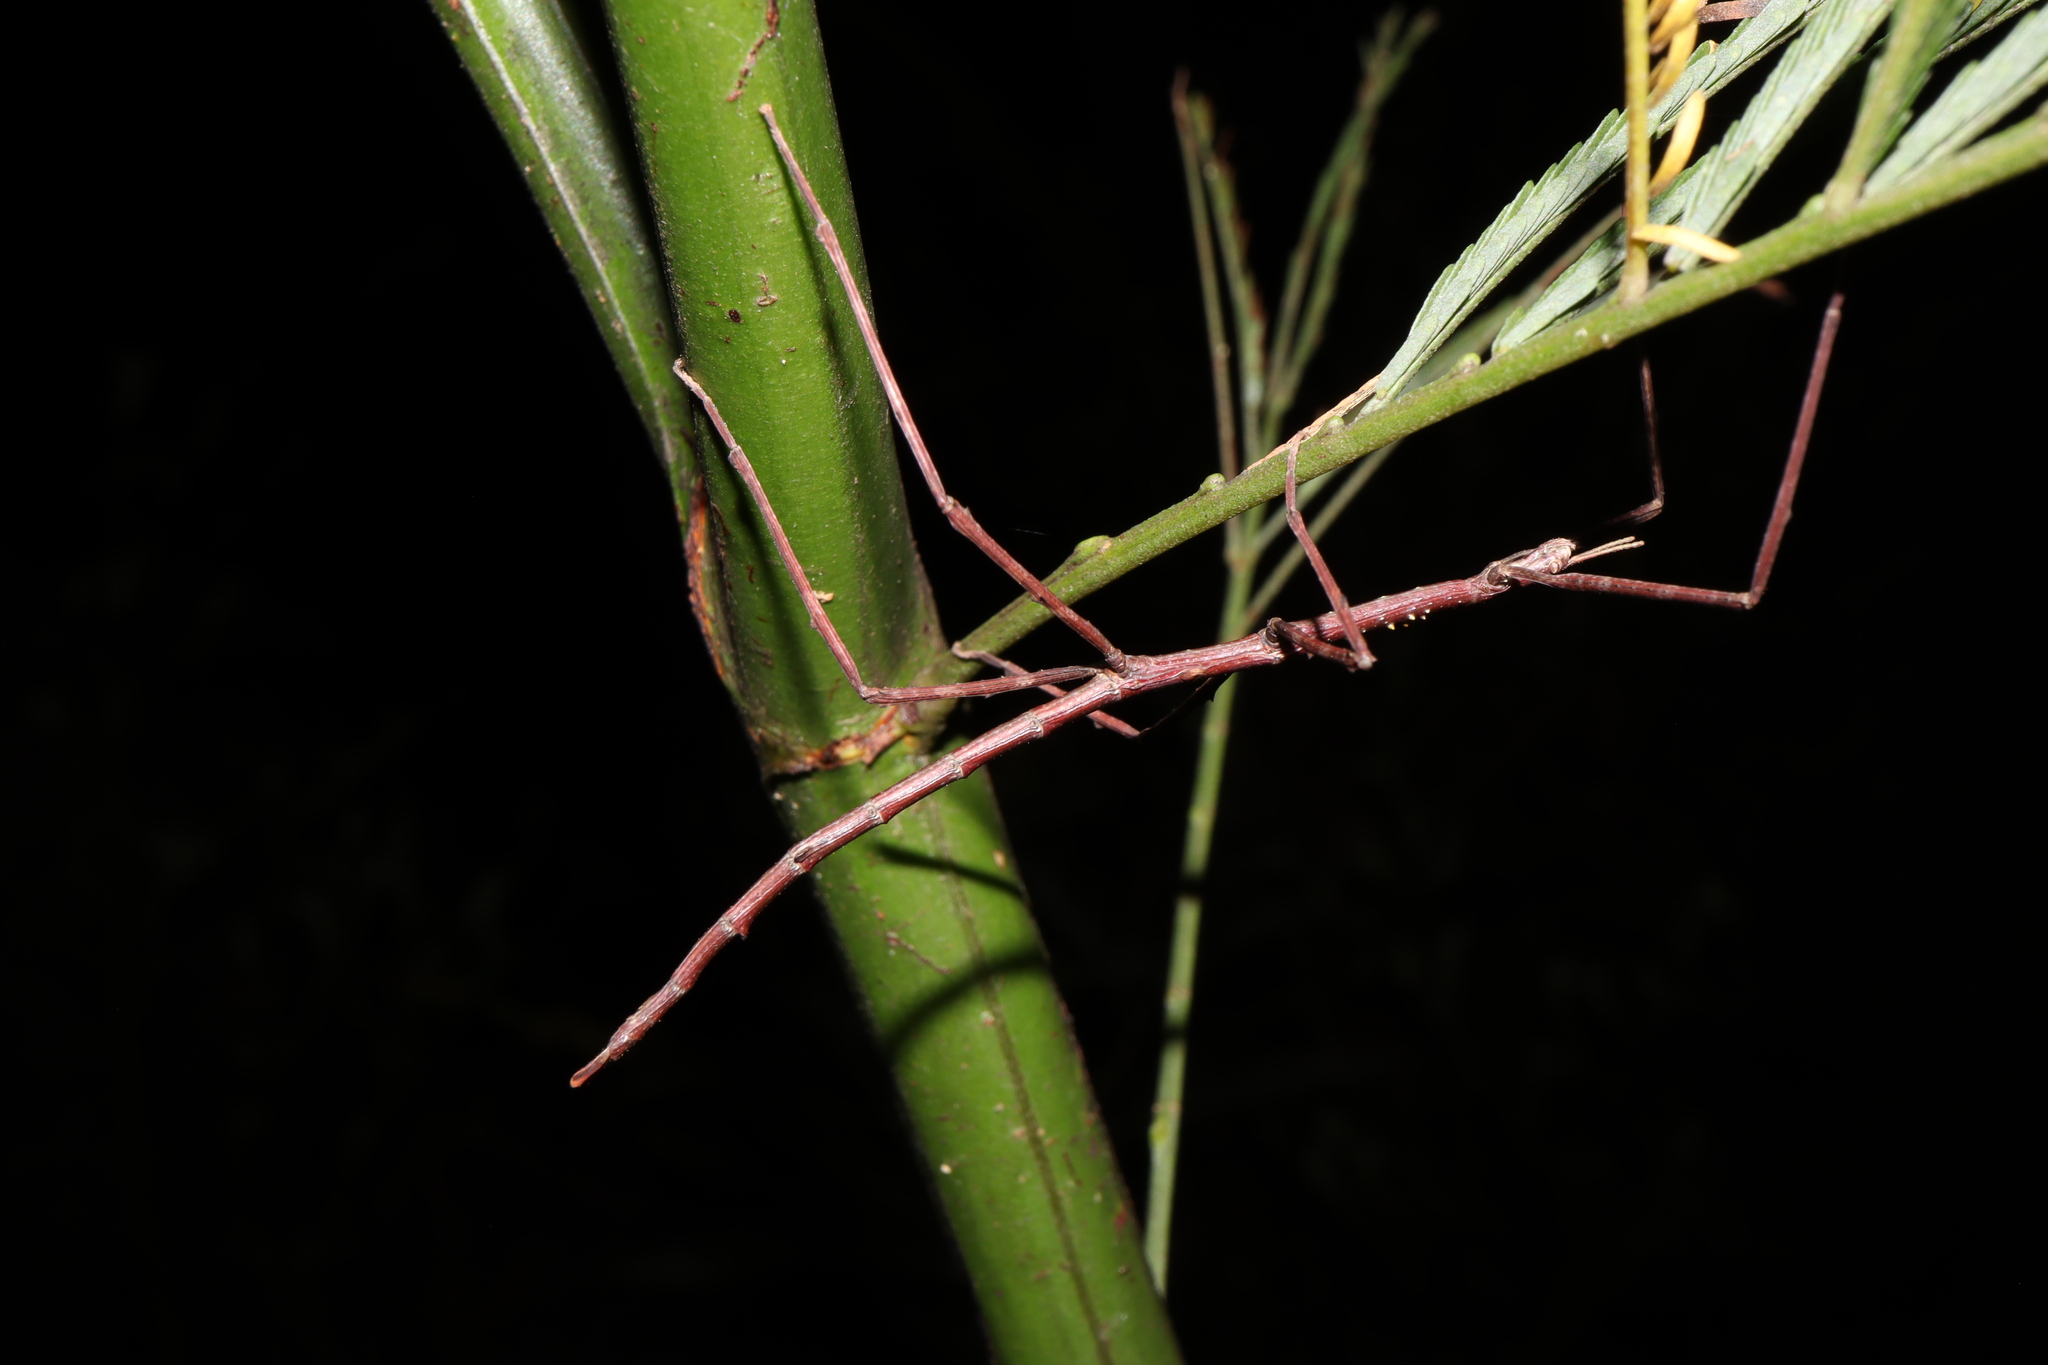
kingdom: Animalia
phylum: Arthropoda
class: Insecta
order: Phasmida
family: Phasmatidae
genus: Ctenomorpha
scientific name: Ctenomorpha marginipennis
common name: Margined-winged stick-insect
